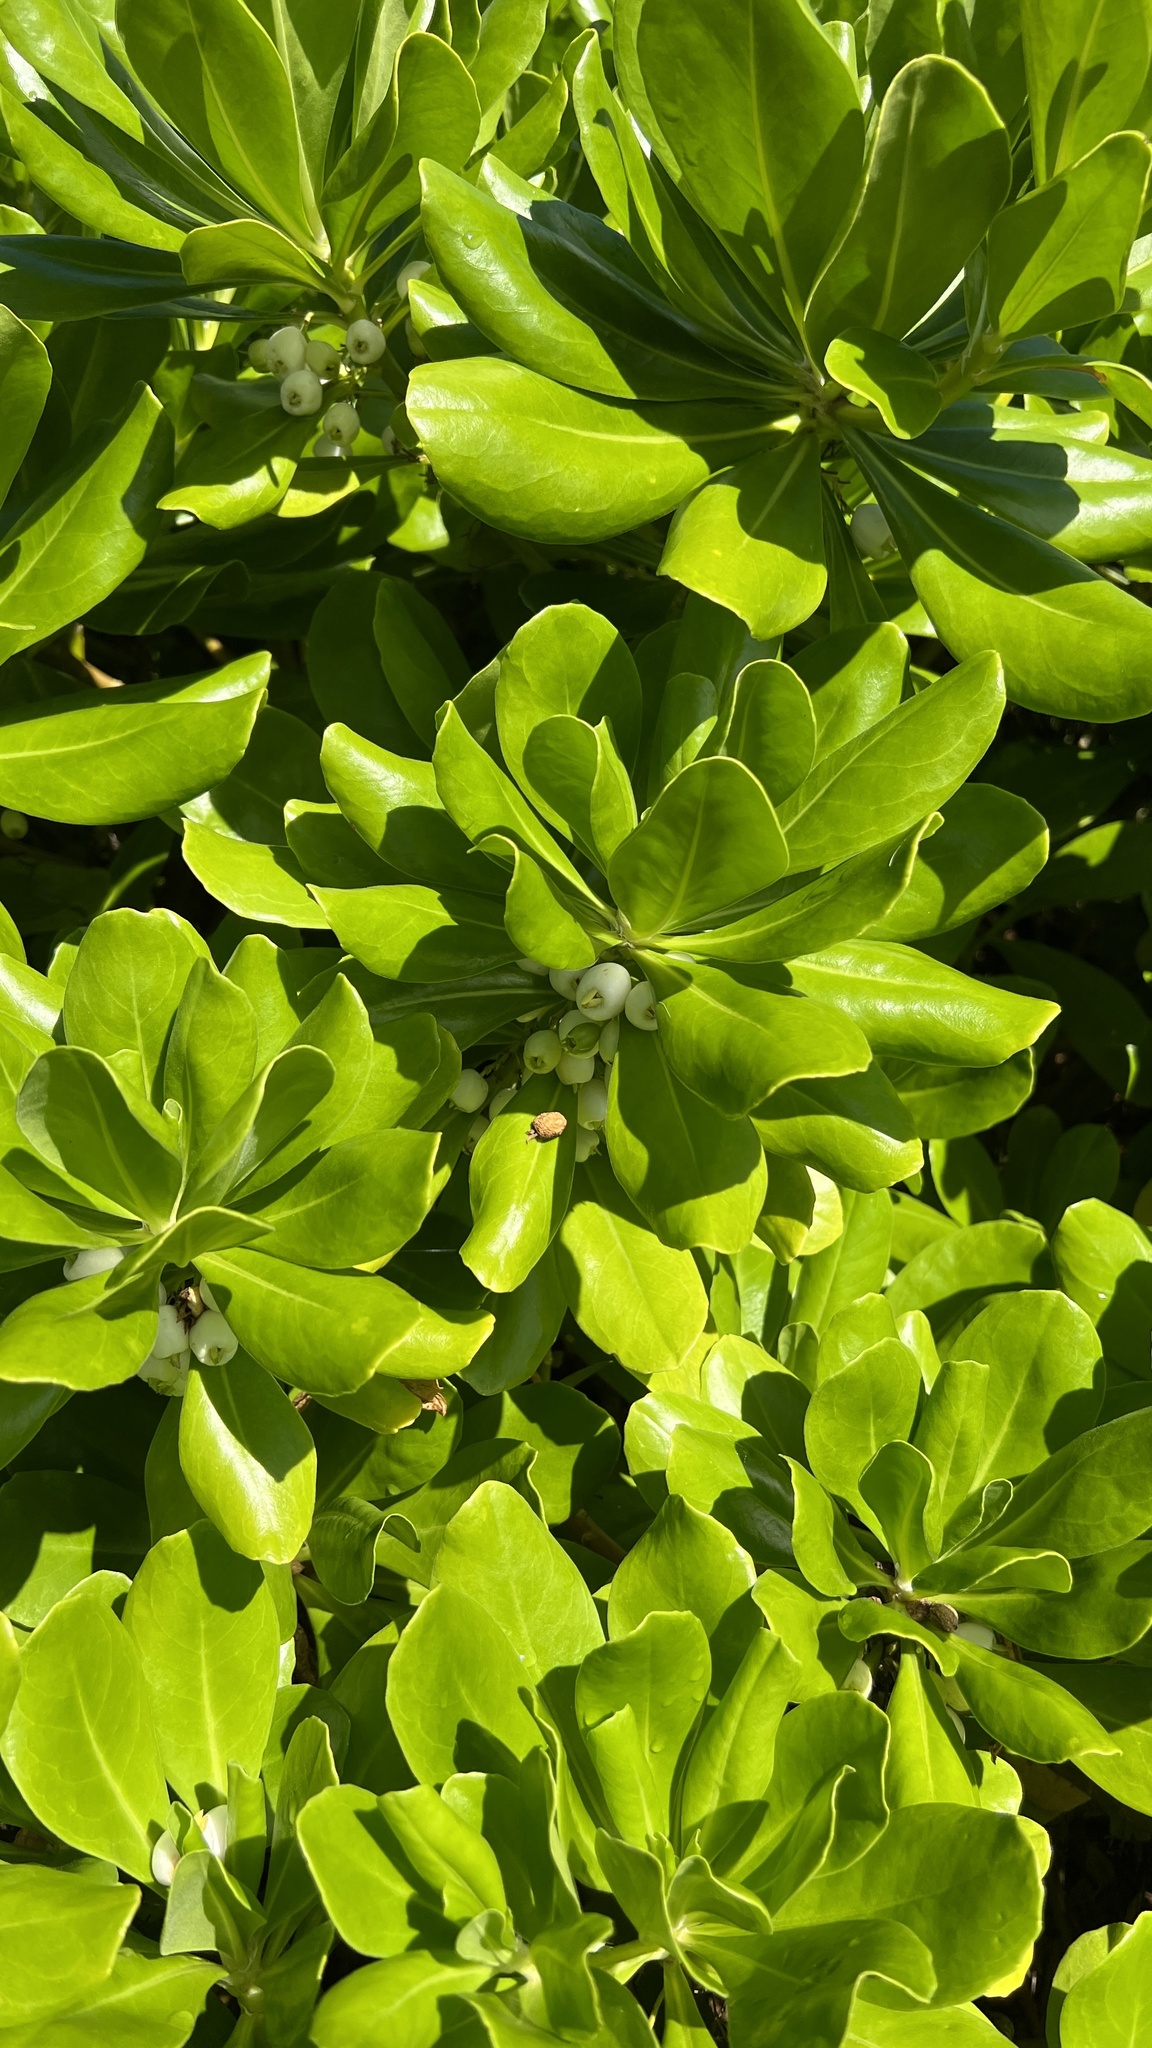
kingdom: Plantae
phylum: Tracheophyta
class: Magnoliopsida
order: Asterales
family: Goodeniaceae
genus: Scaevola
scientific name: Scaevola taccada
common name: Sea lettucetree
